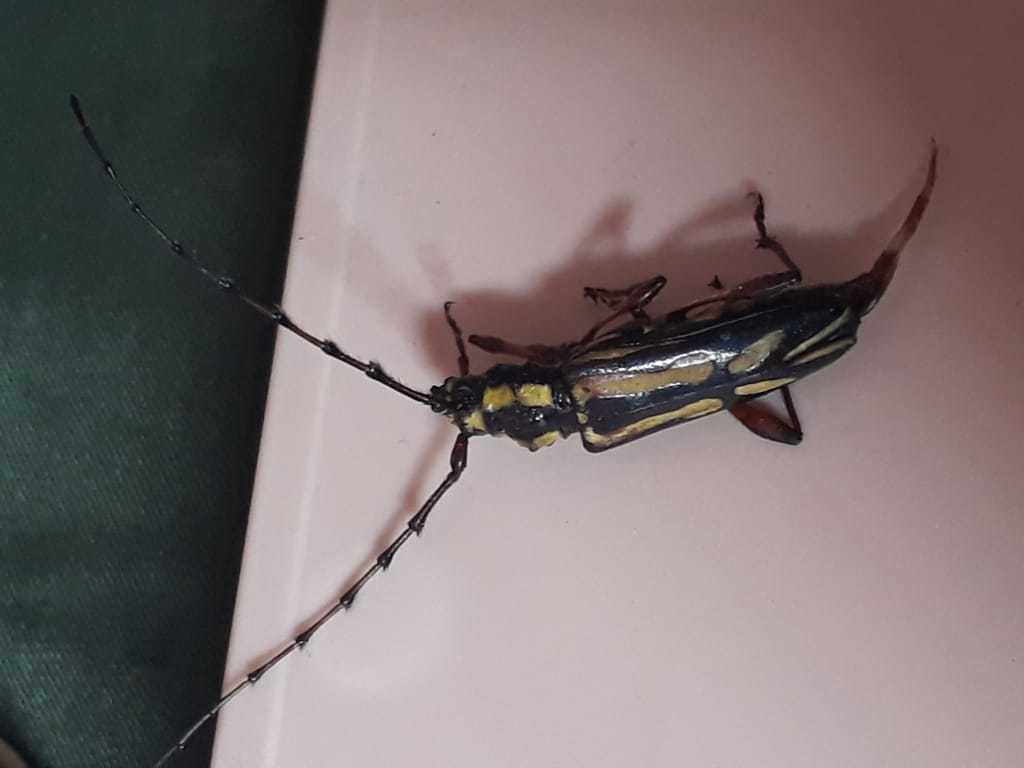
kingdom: Animalia
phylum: Arthropoda
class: Insecta
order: Coleoptera
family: Cerambycidae
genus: Ornithia
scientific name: Ornithia mexicana
